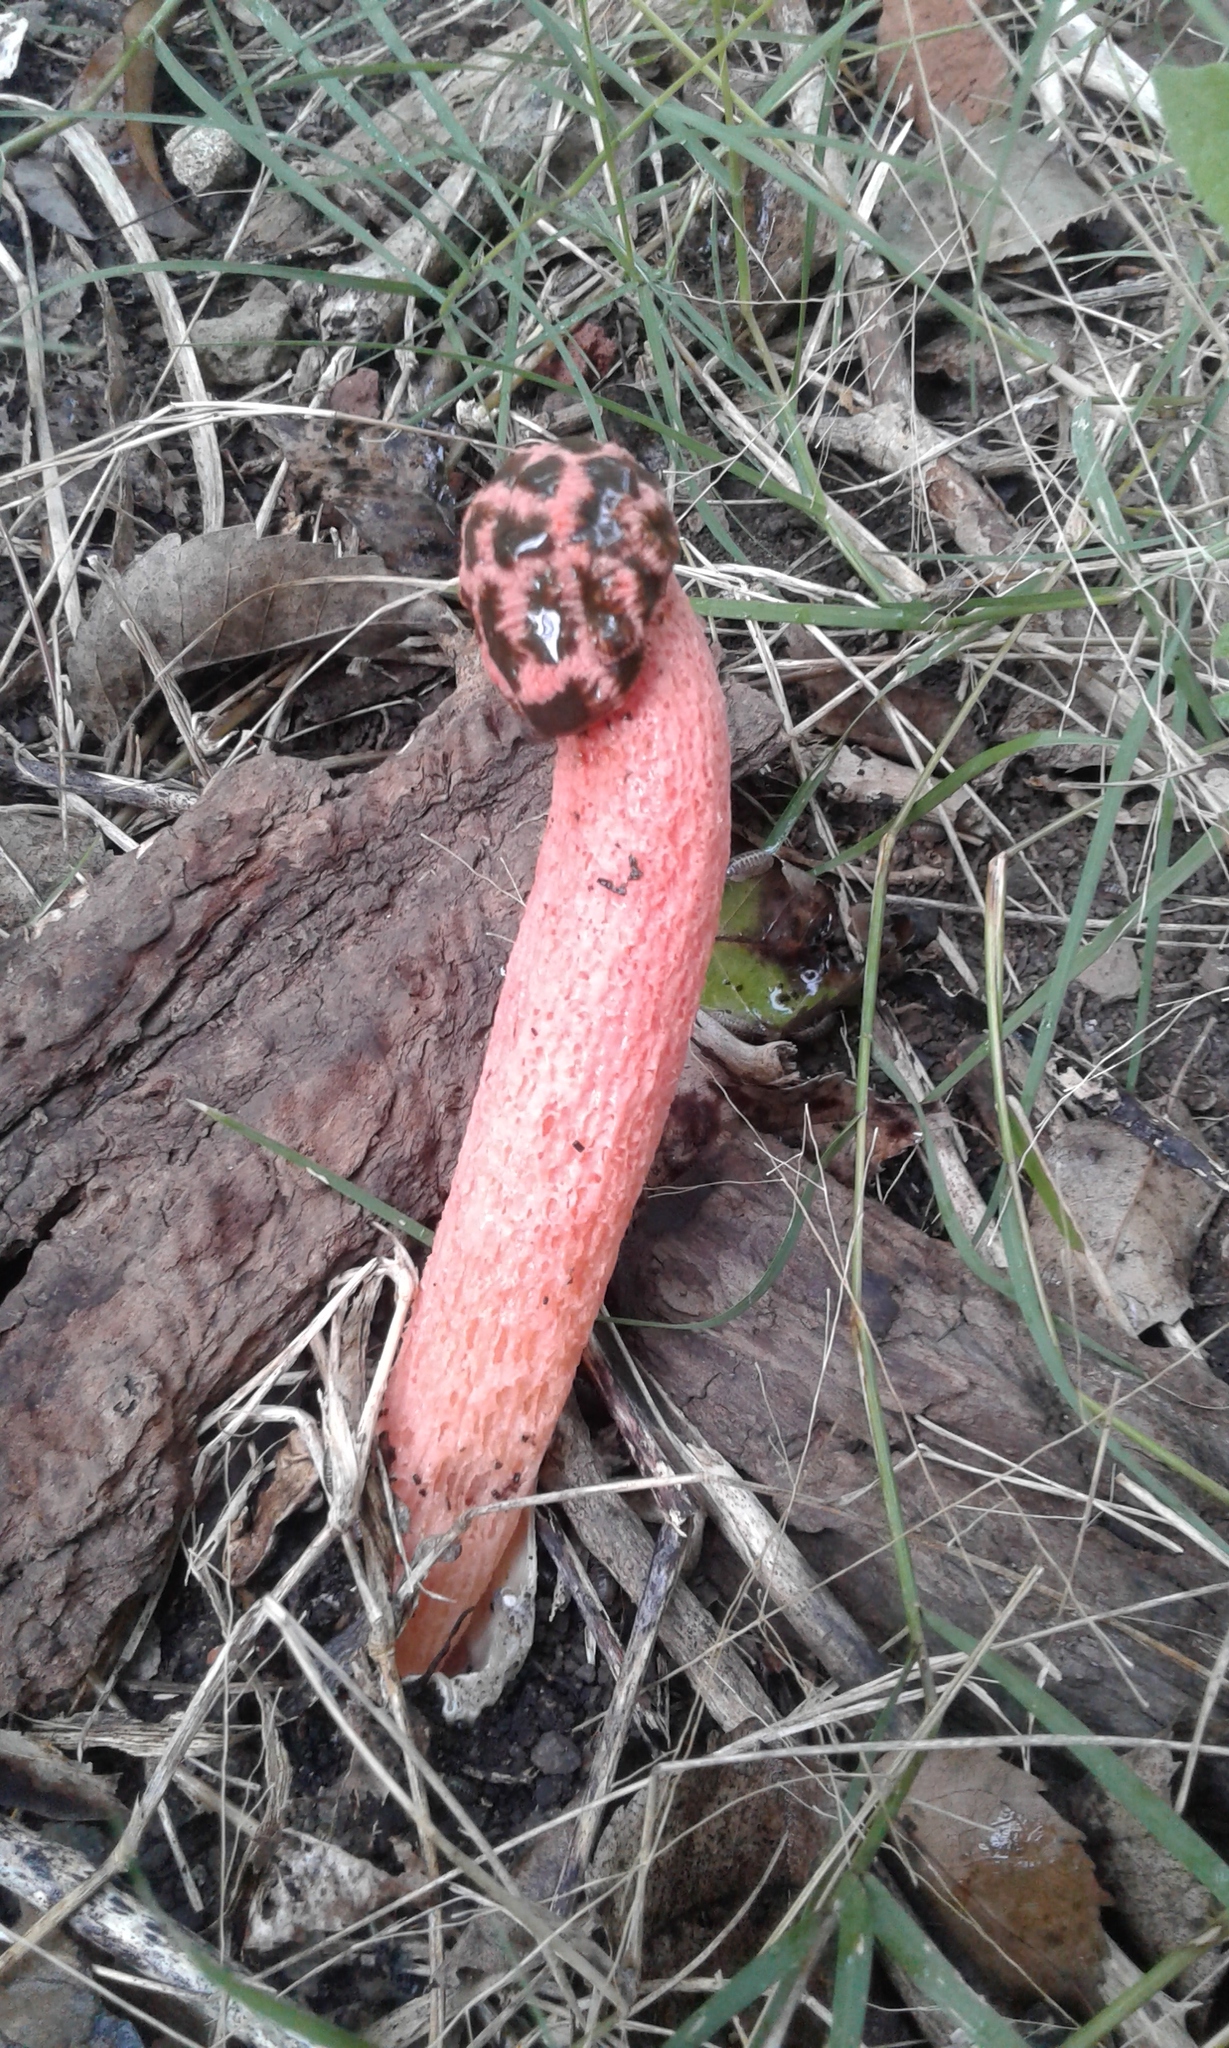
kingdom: Fungi
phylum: Basidiomycota
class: Agaricomycetes
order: Phallales
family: Phallaceae
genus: Lysurus
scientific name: Lysurus periphragmoides
